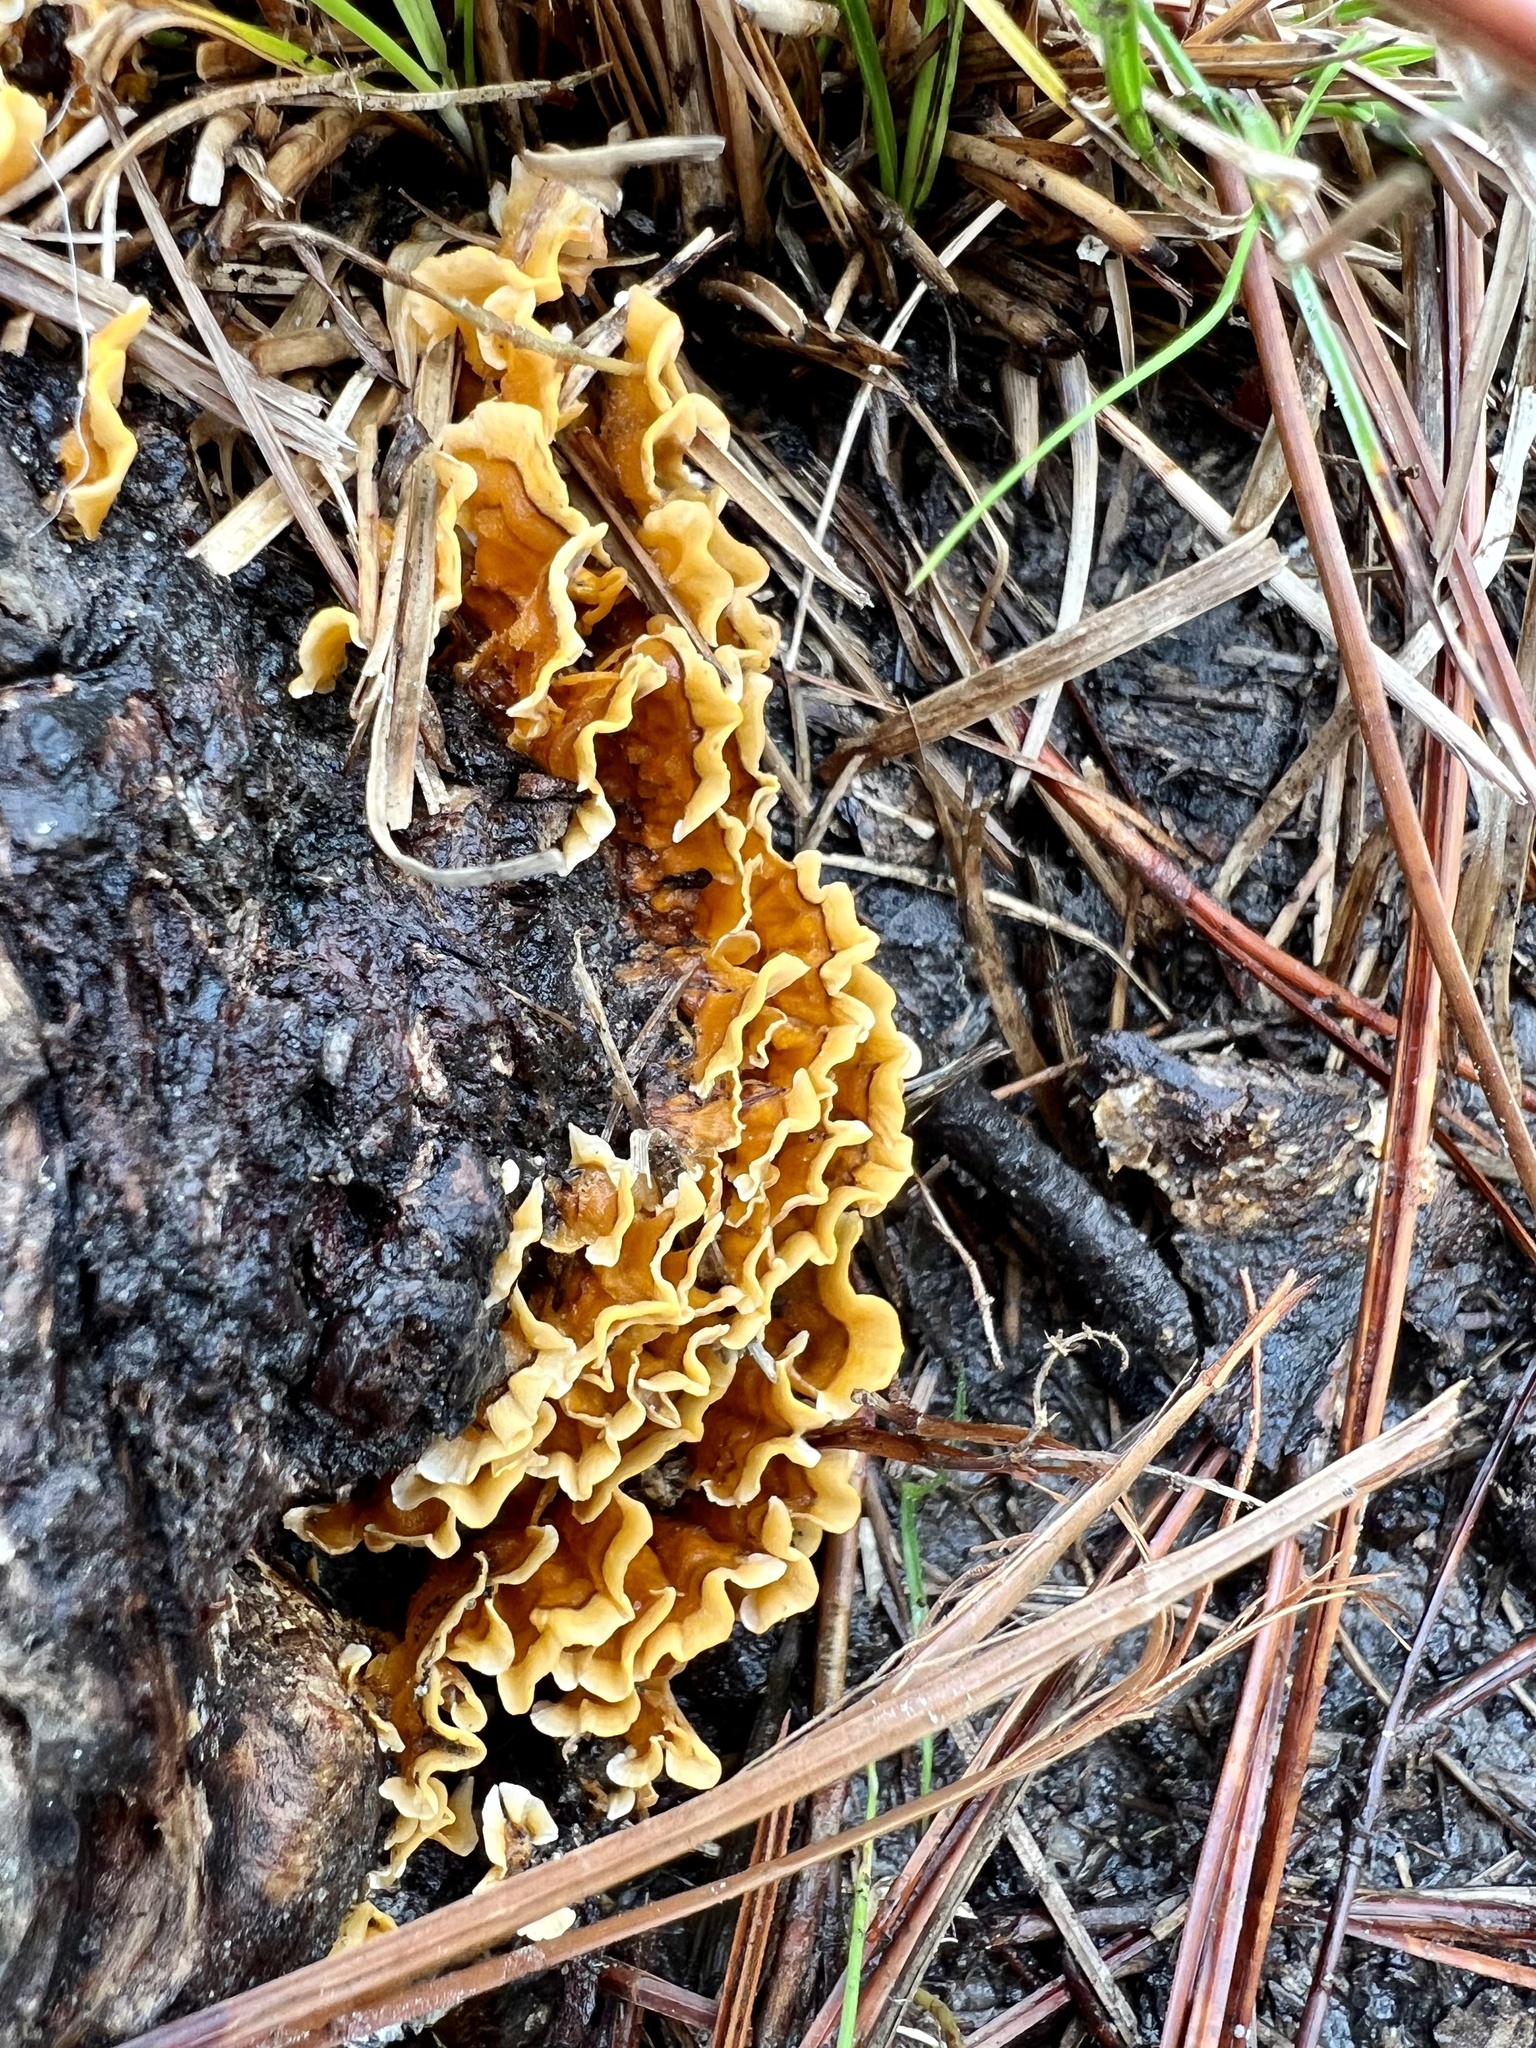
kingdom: Fungi
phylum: Basidiomycota
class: Agaricomycetes
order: Russulales
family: Stereaceae
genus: Stereum
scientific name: Stereum complicatum
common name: Crowded parchment
